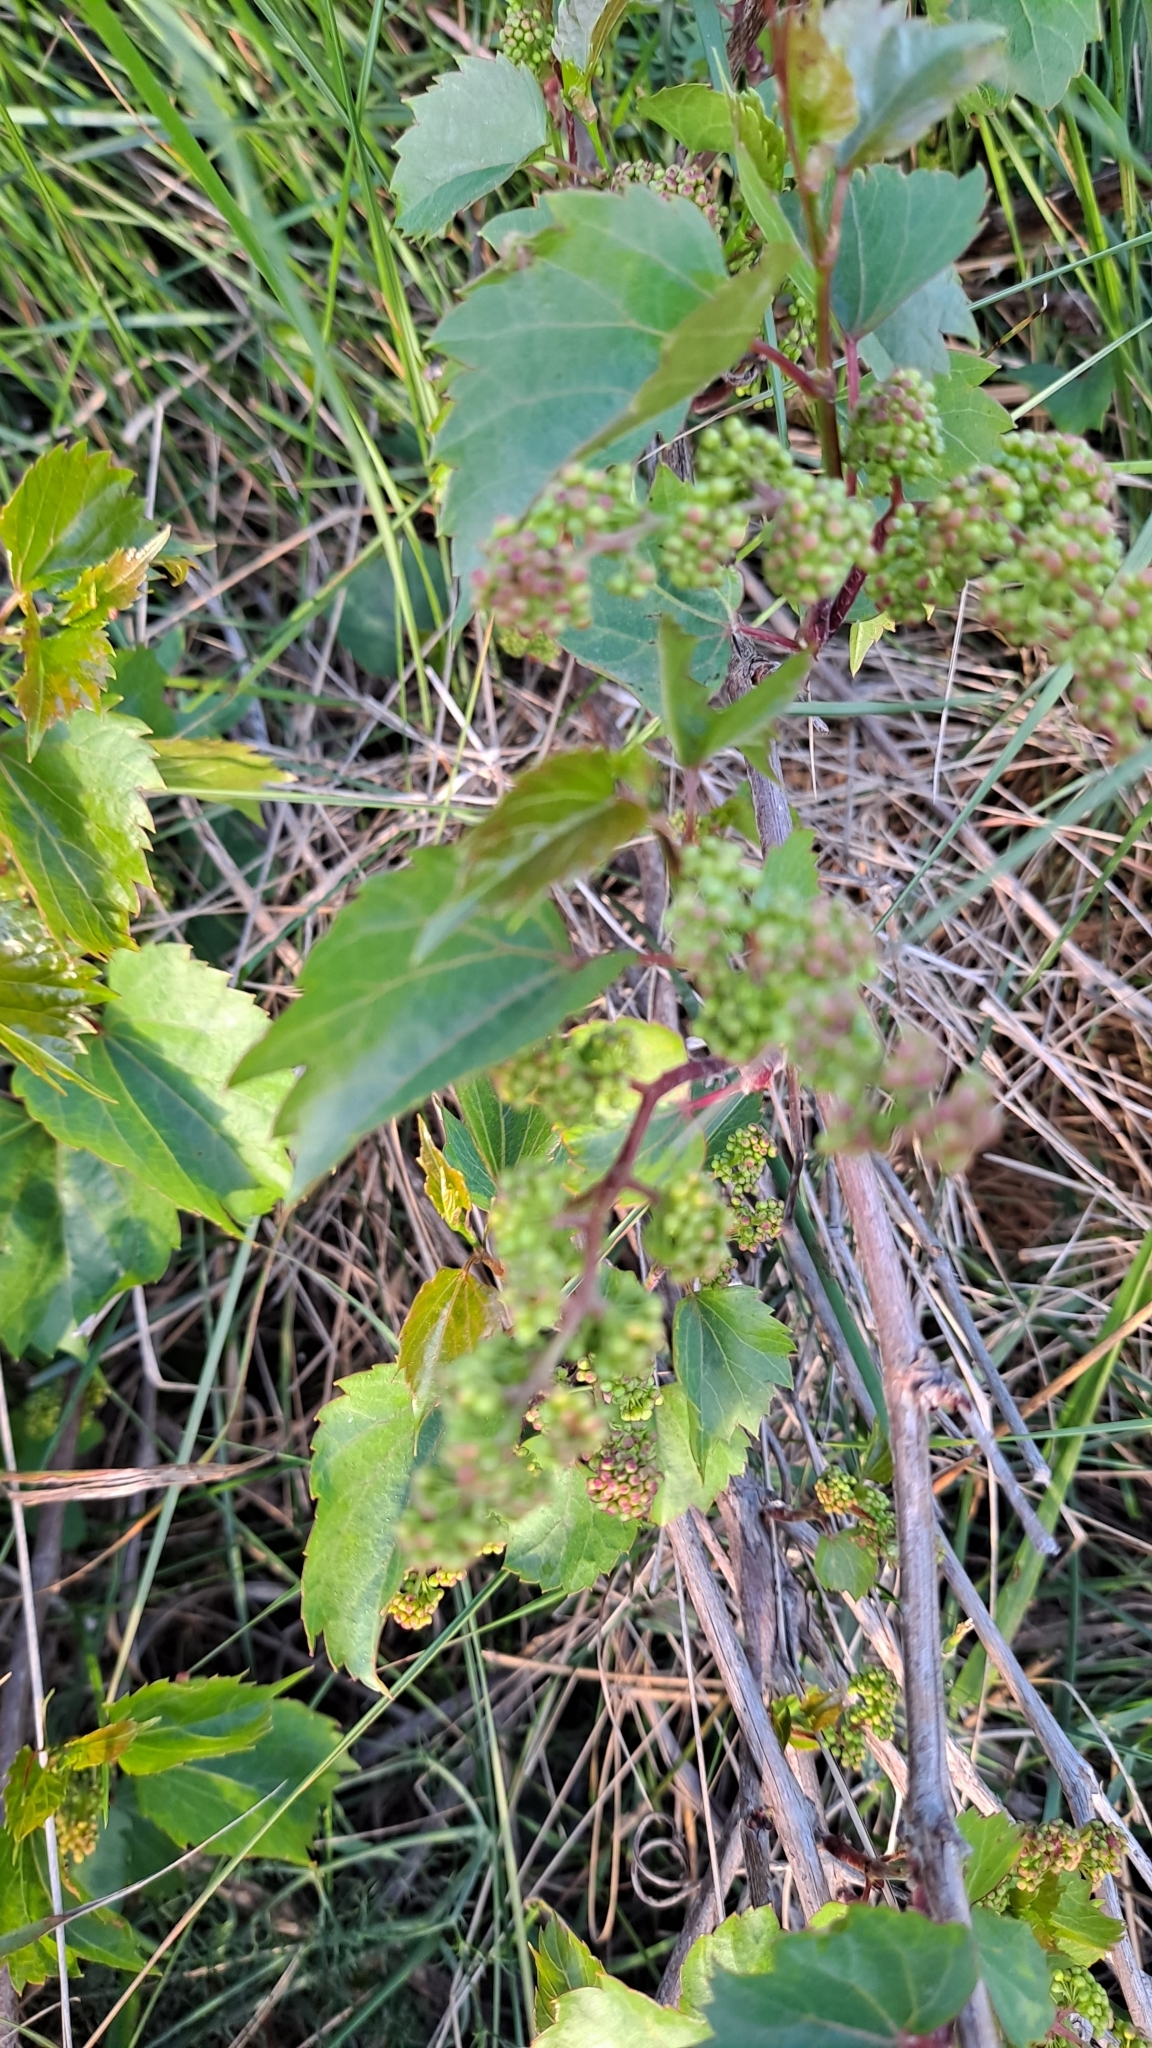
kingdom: Plantae
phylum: Tracheophyta
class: Magnoliopsida
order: Vitales
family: Vitaceae
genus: Vitis
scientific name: Vitis vinifera
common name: Grape-vine
